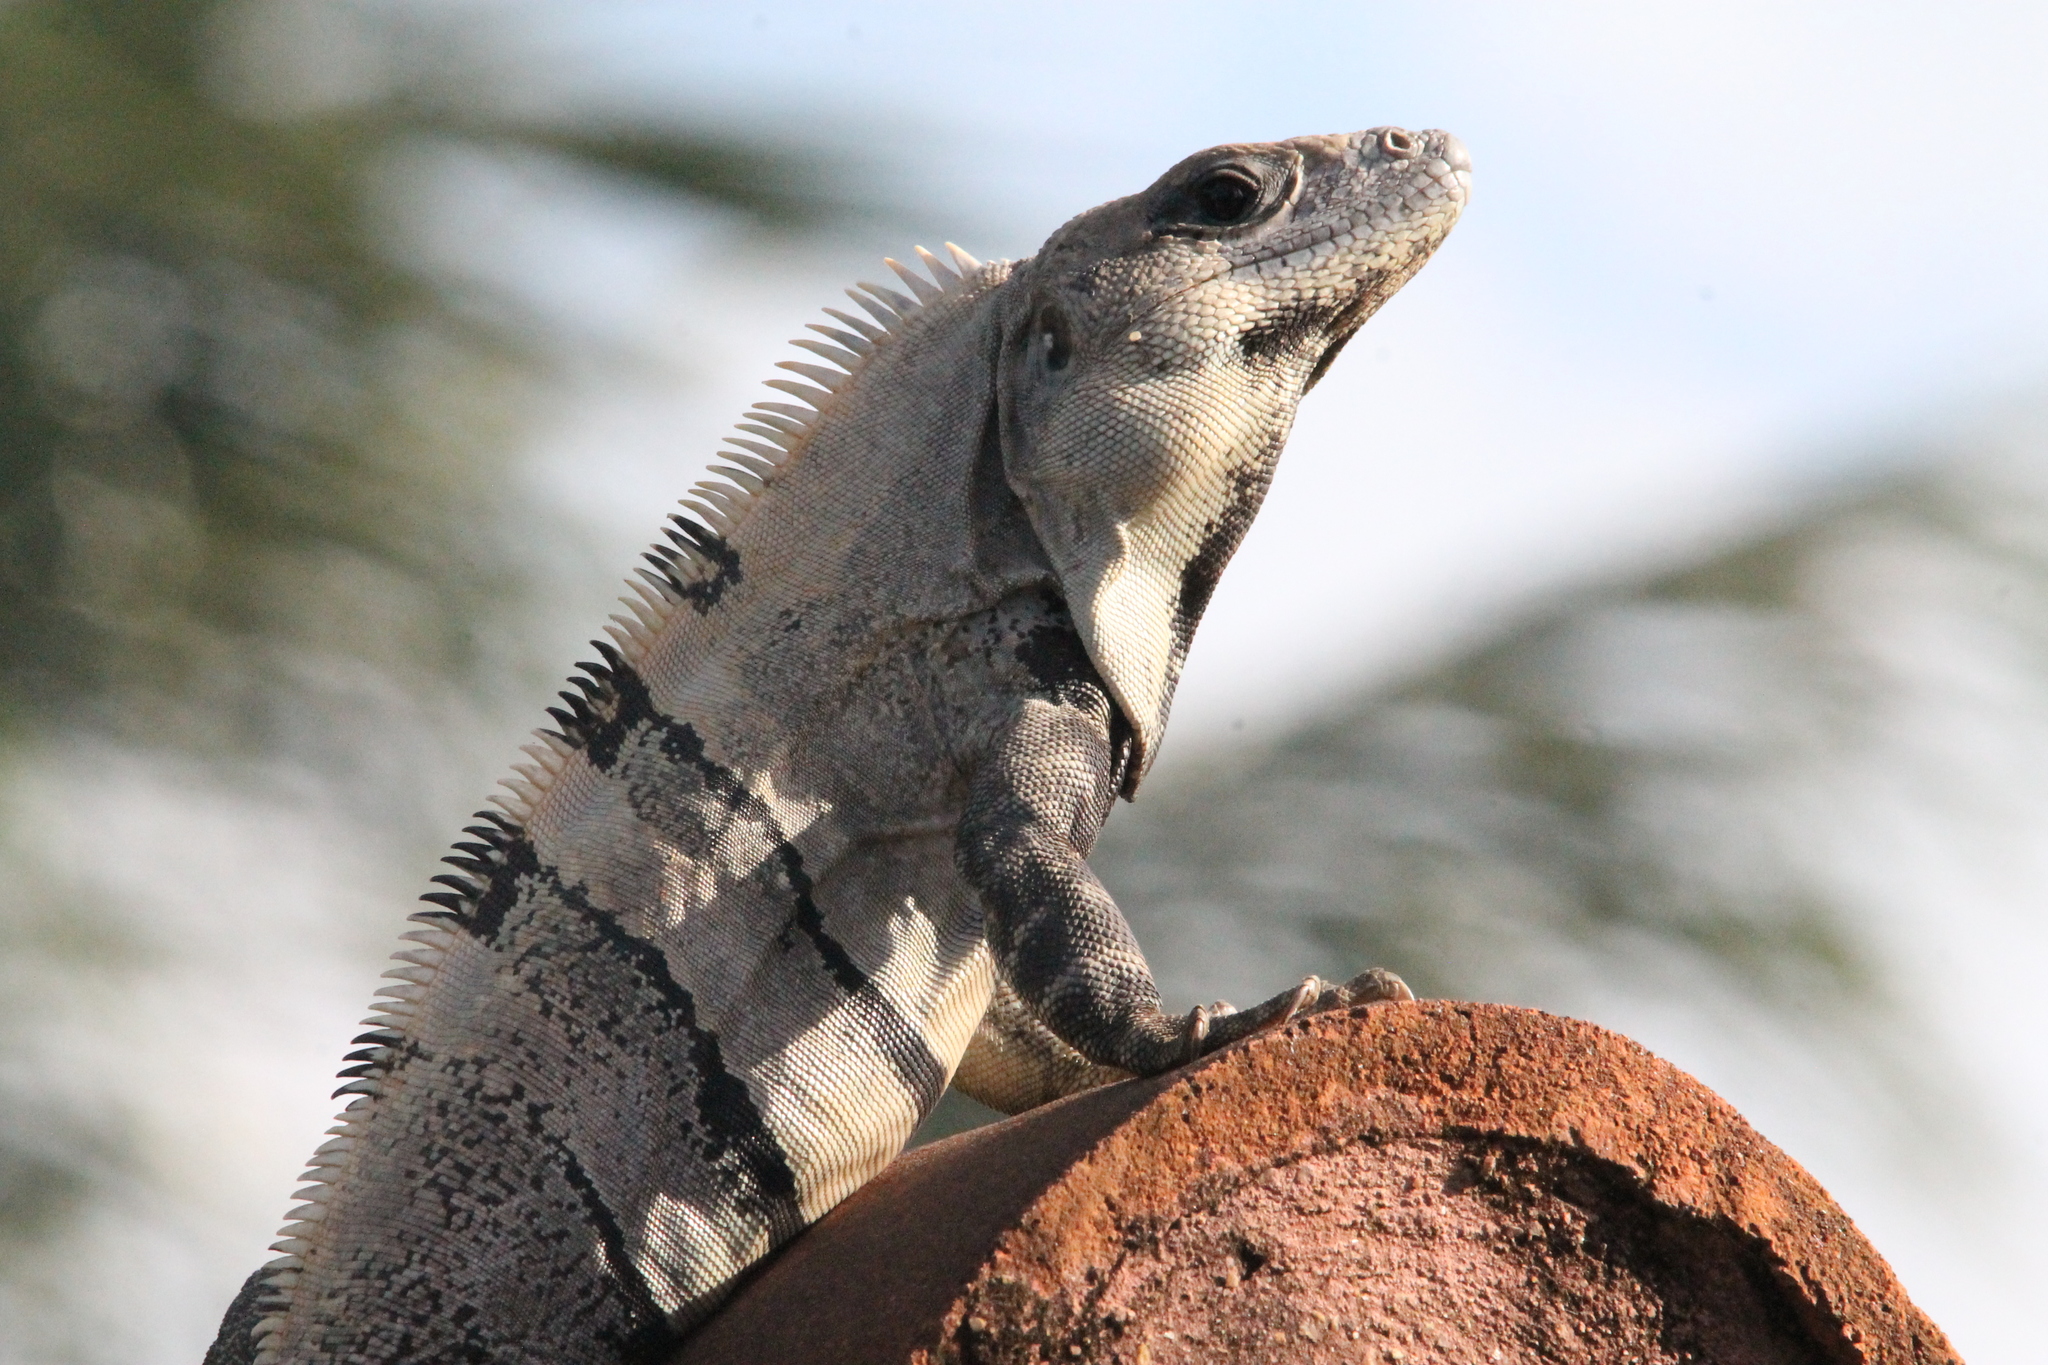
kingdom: Animalia
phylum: Chordata
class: Squamata
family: Iguanidae
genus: Ctenosaura
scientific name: Ctenosaura similis
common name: Black spiny-tailed iguana
